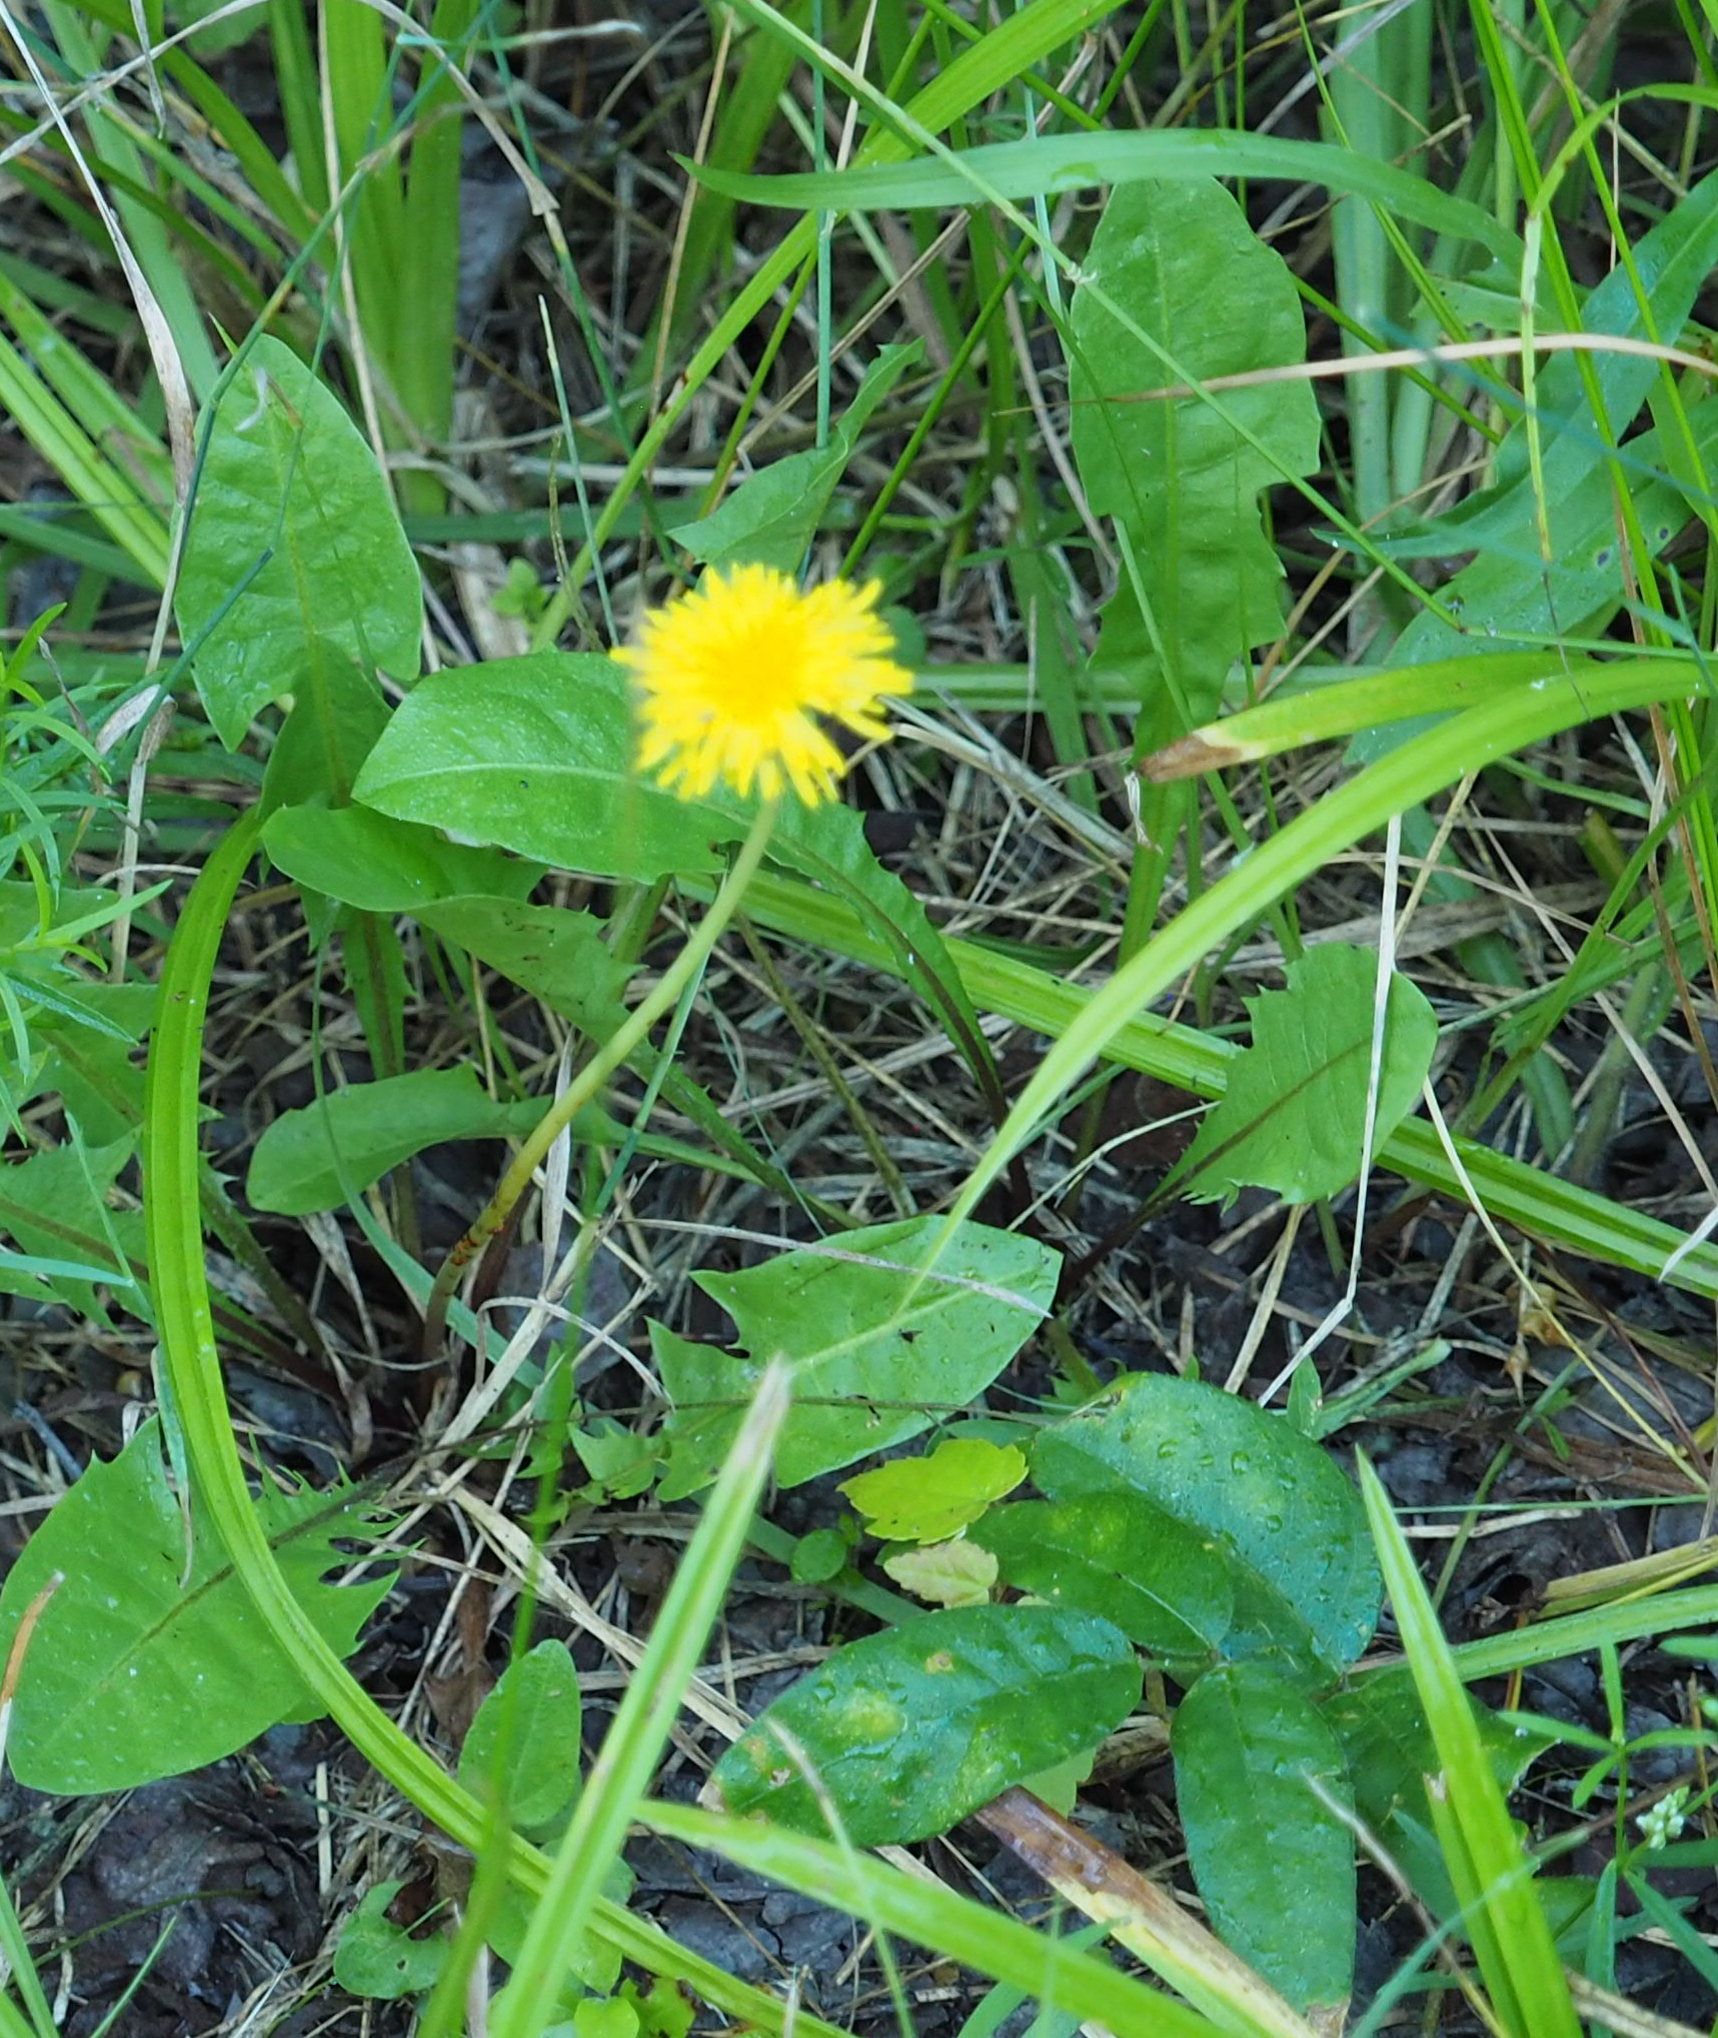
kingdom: Plantae
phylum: Tracheophyta
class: Magnoliopsida
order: Asterales
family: Asteraceae
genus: Taraxacum
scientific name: Taraxacum officinale
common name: Common dandelion
